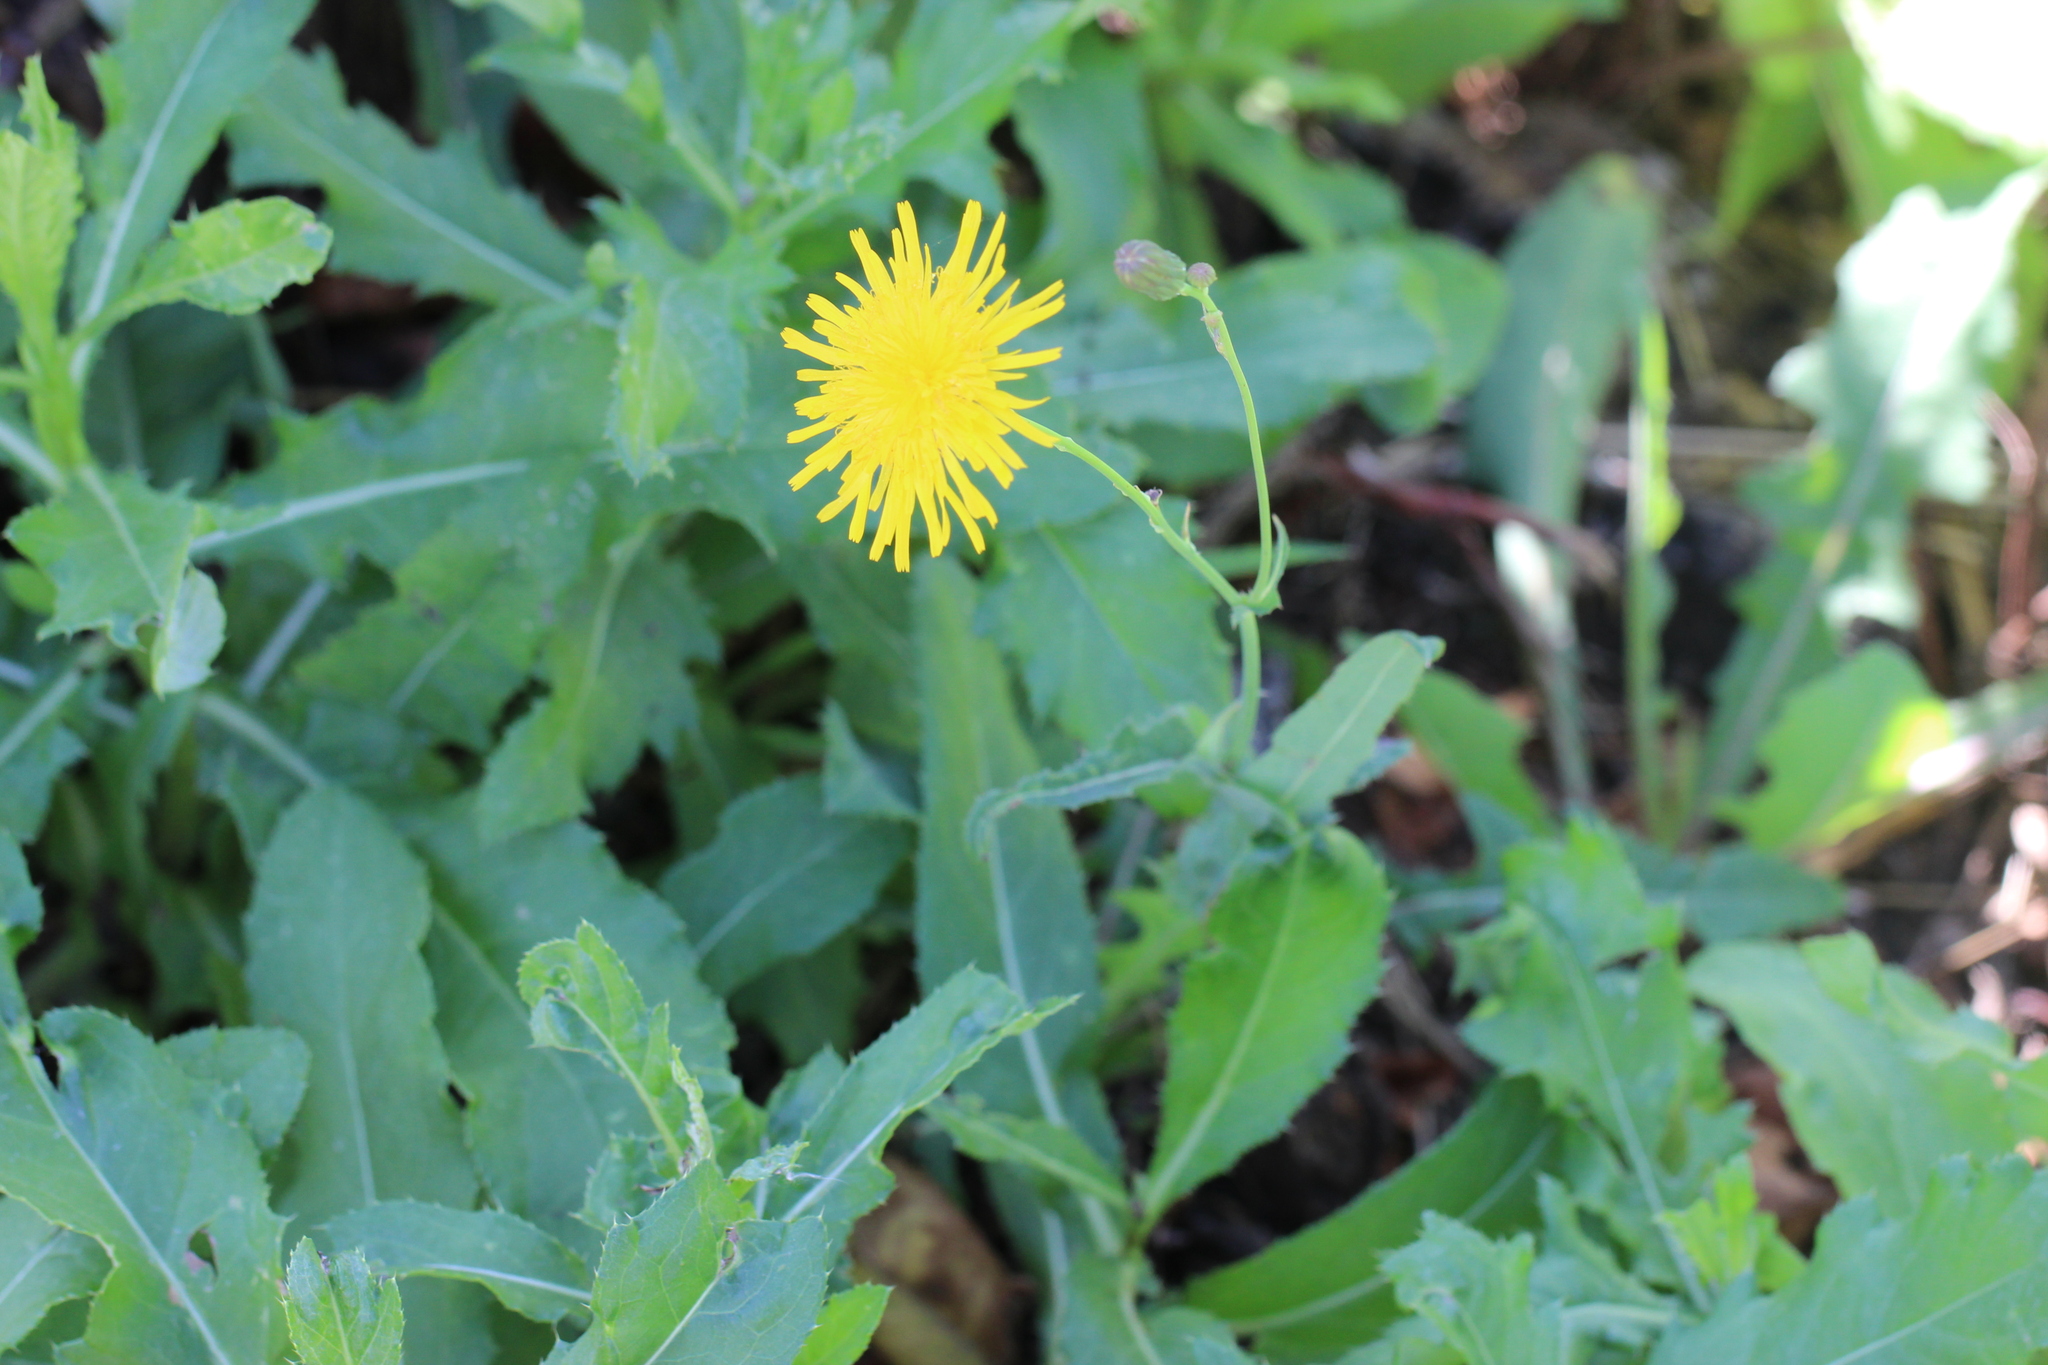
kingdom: Plantae
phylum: Tracheophyta
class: Magnoliopsida
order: Asterales
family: Asteraceae
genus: Sonchus
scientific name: Sonchus arvensis
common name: Perennial sow-thistle
